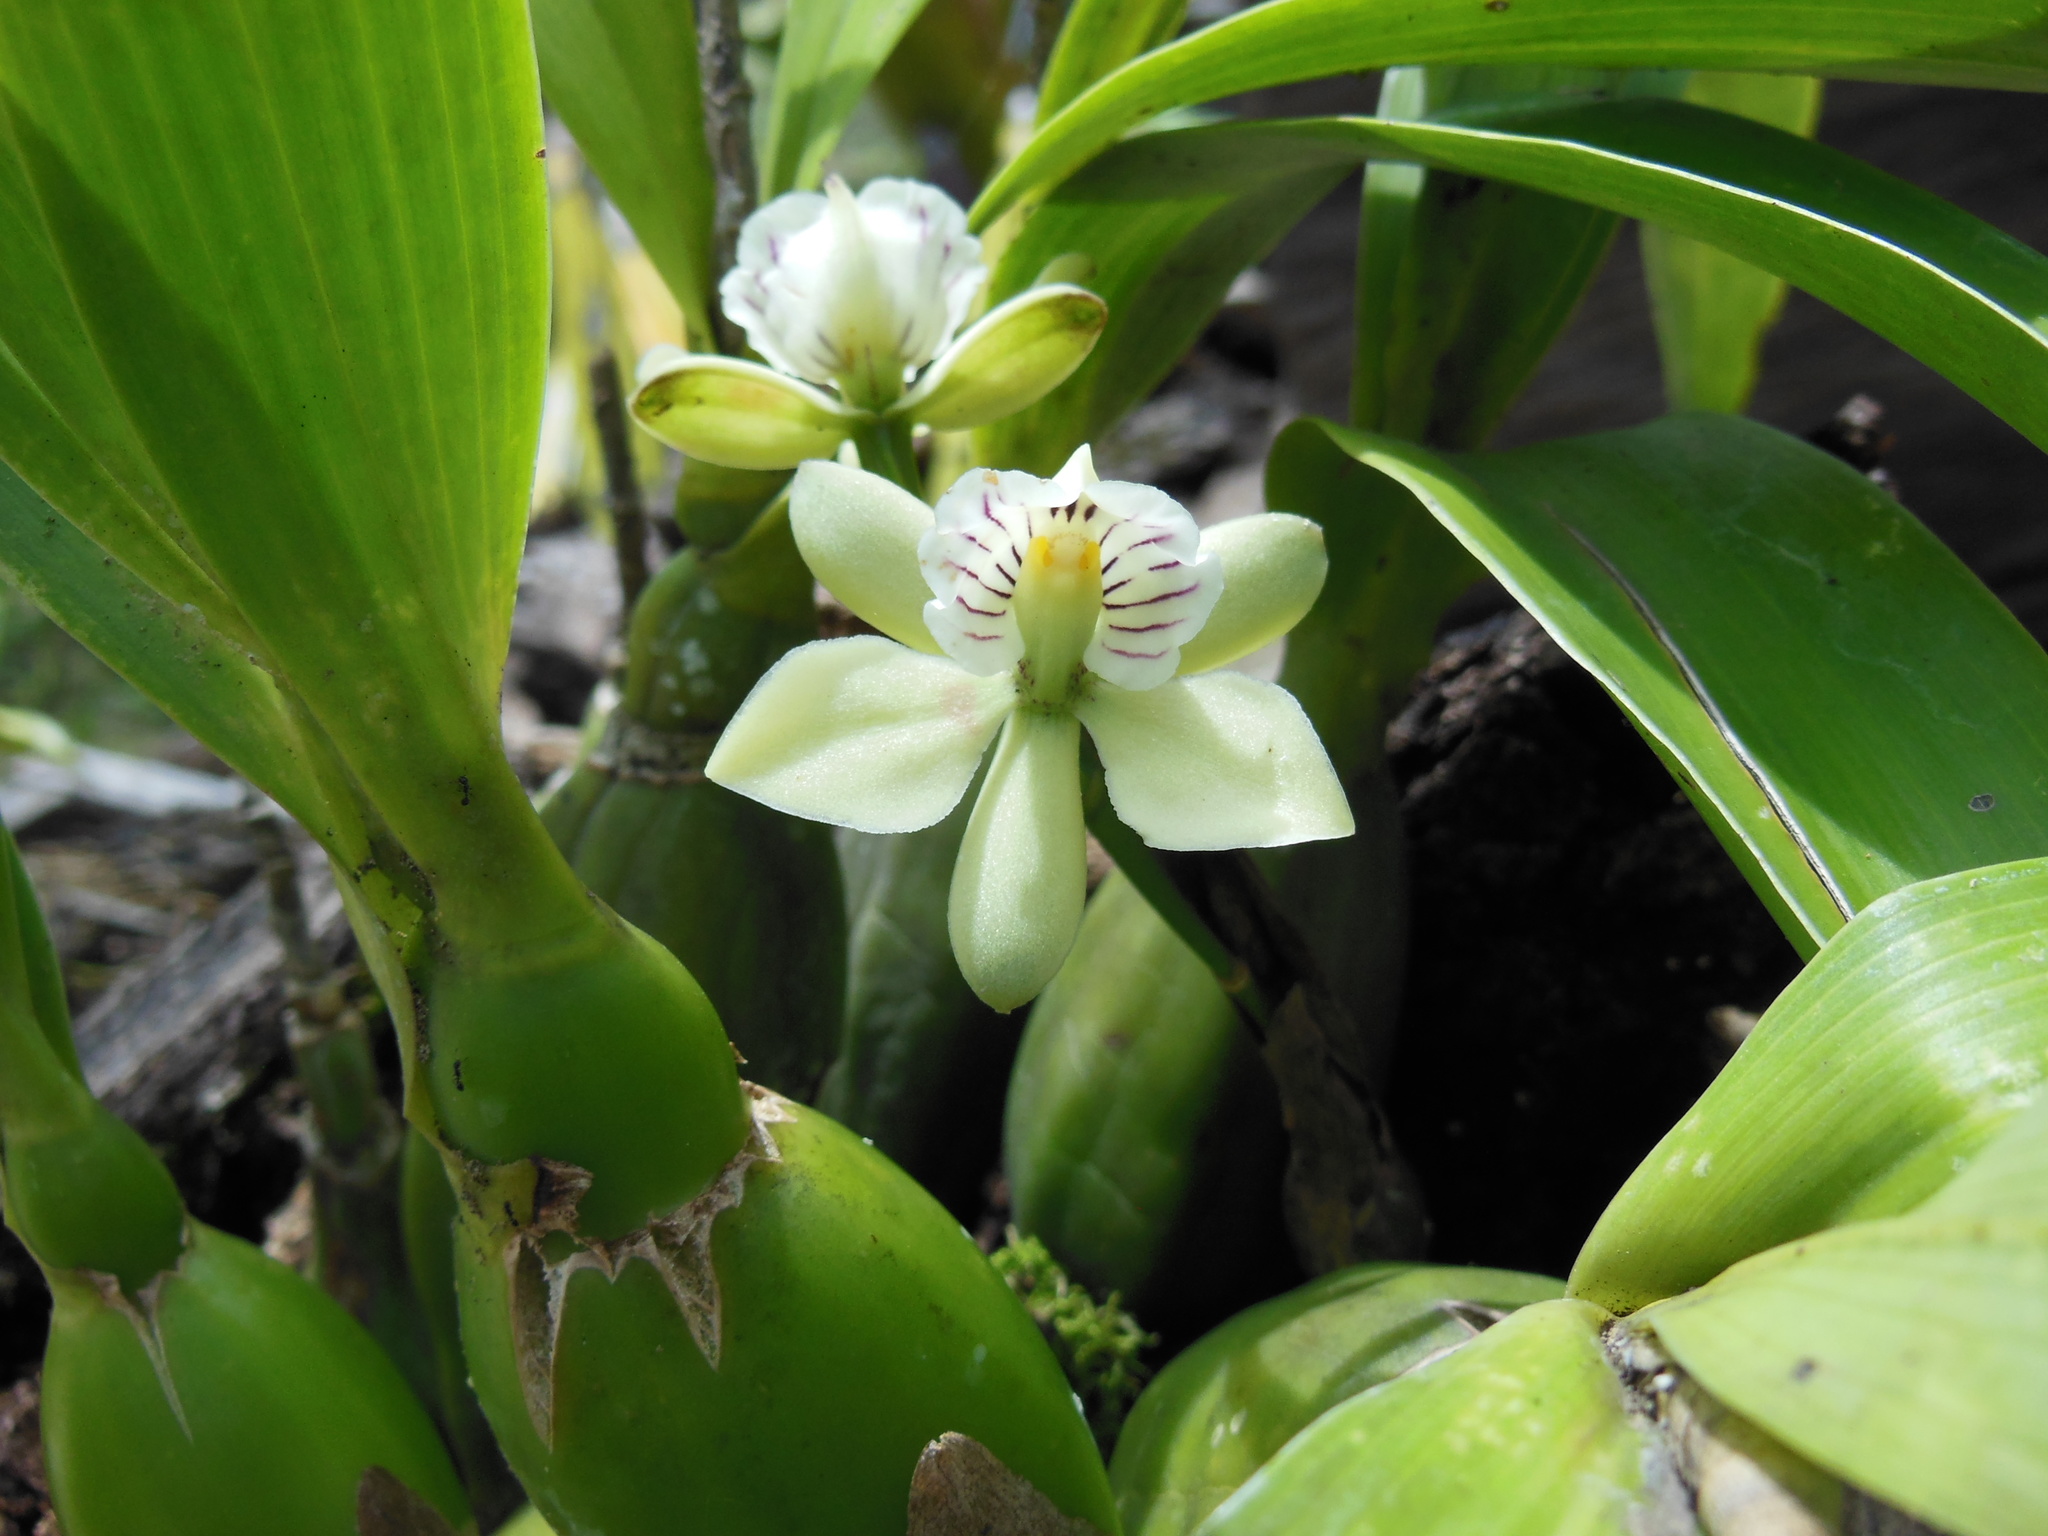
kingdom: Plantae
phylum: Tracheophyta
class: Liliopsida
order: Asparagales
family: Orchidaceae
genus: Prosthechea
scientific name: Prosthechea radiata
